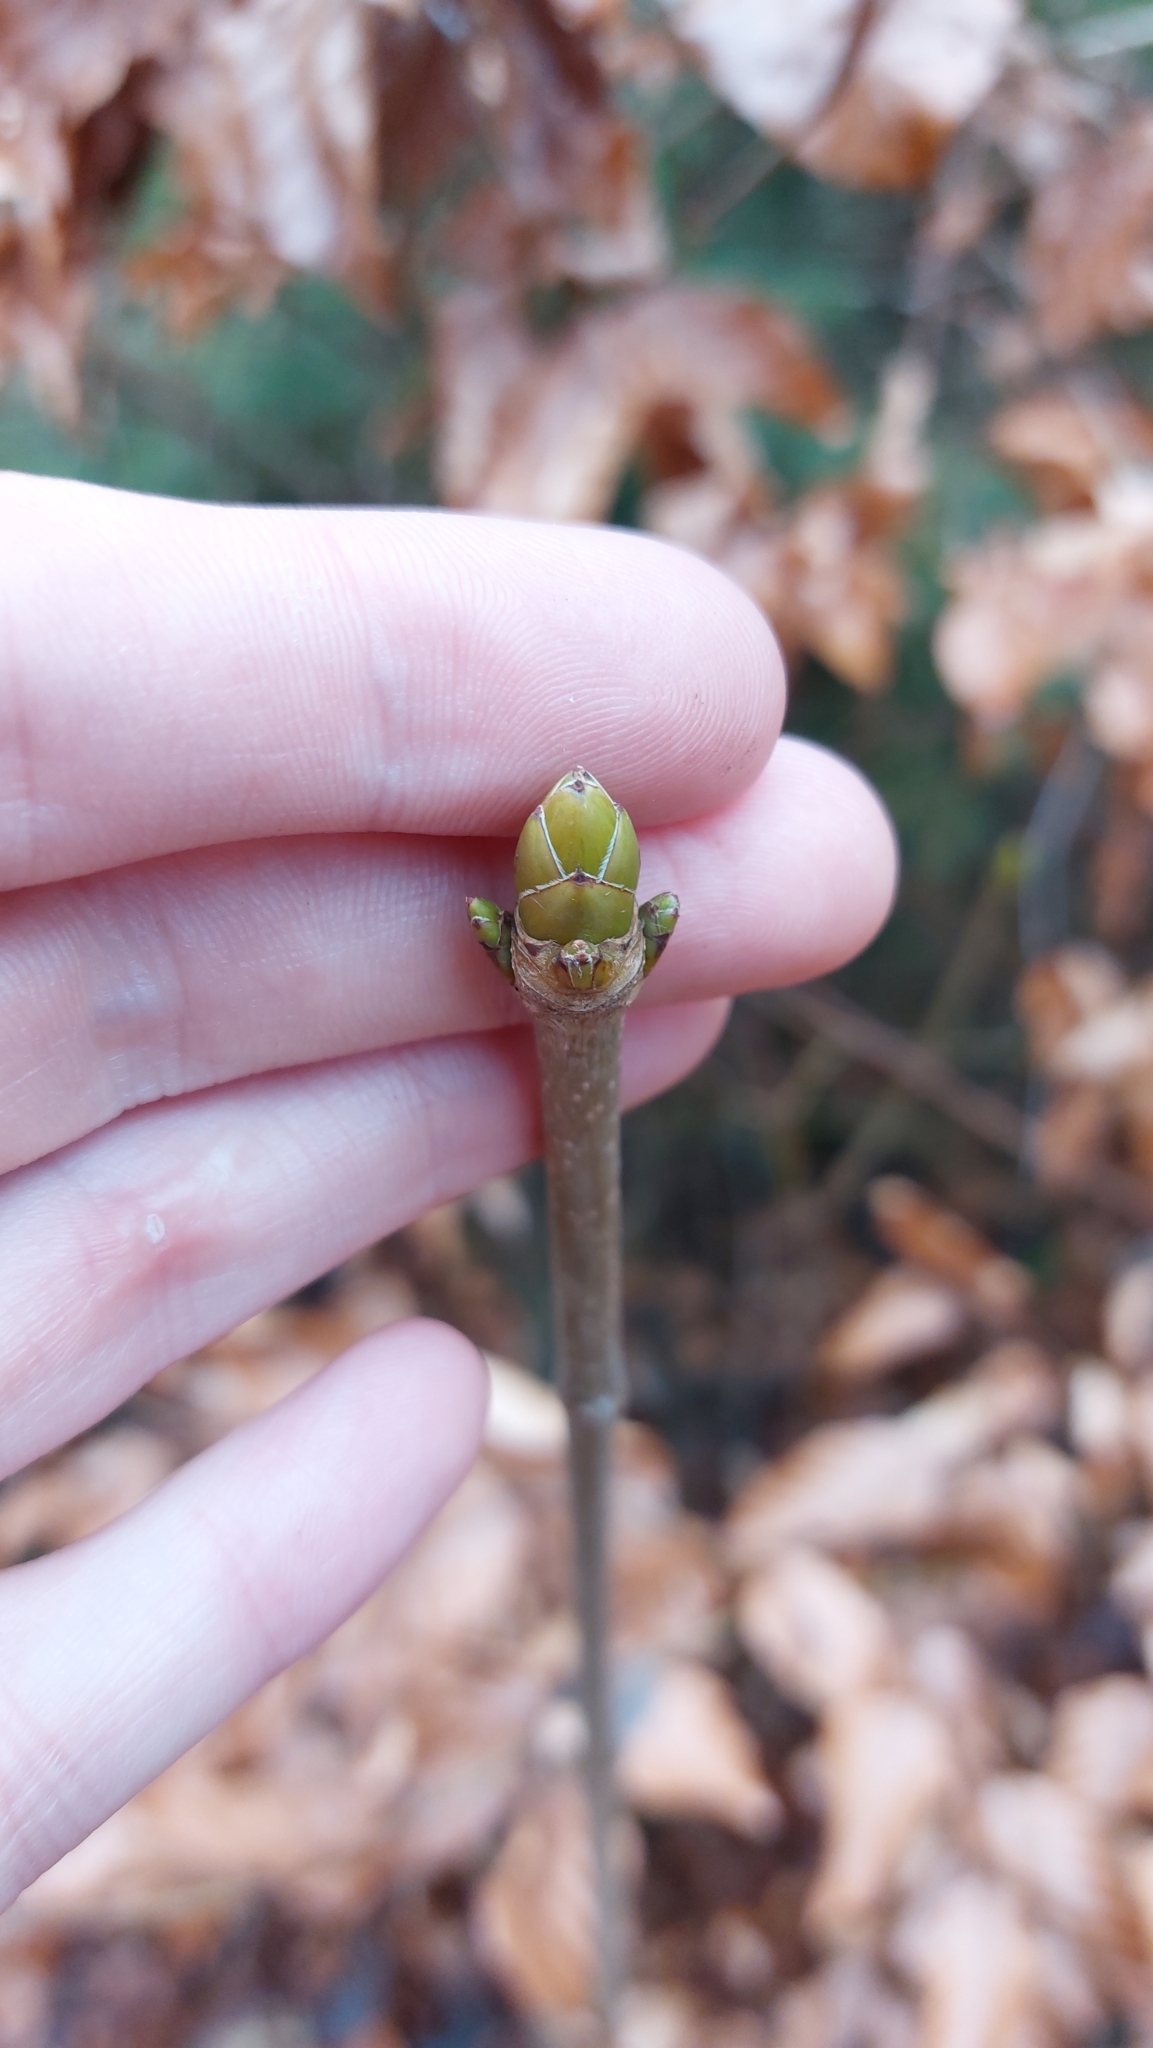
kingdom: Plantae
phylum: Tracheophyta
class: Magnoliopsida
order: Sapindales
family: Sapindaceae
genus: Acer
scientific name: Acer pseudoplatanus
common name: Sycamore
